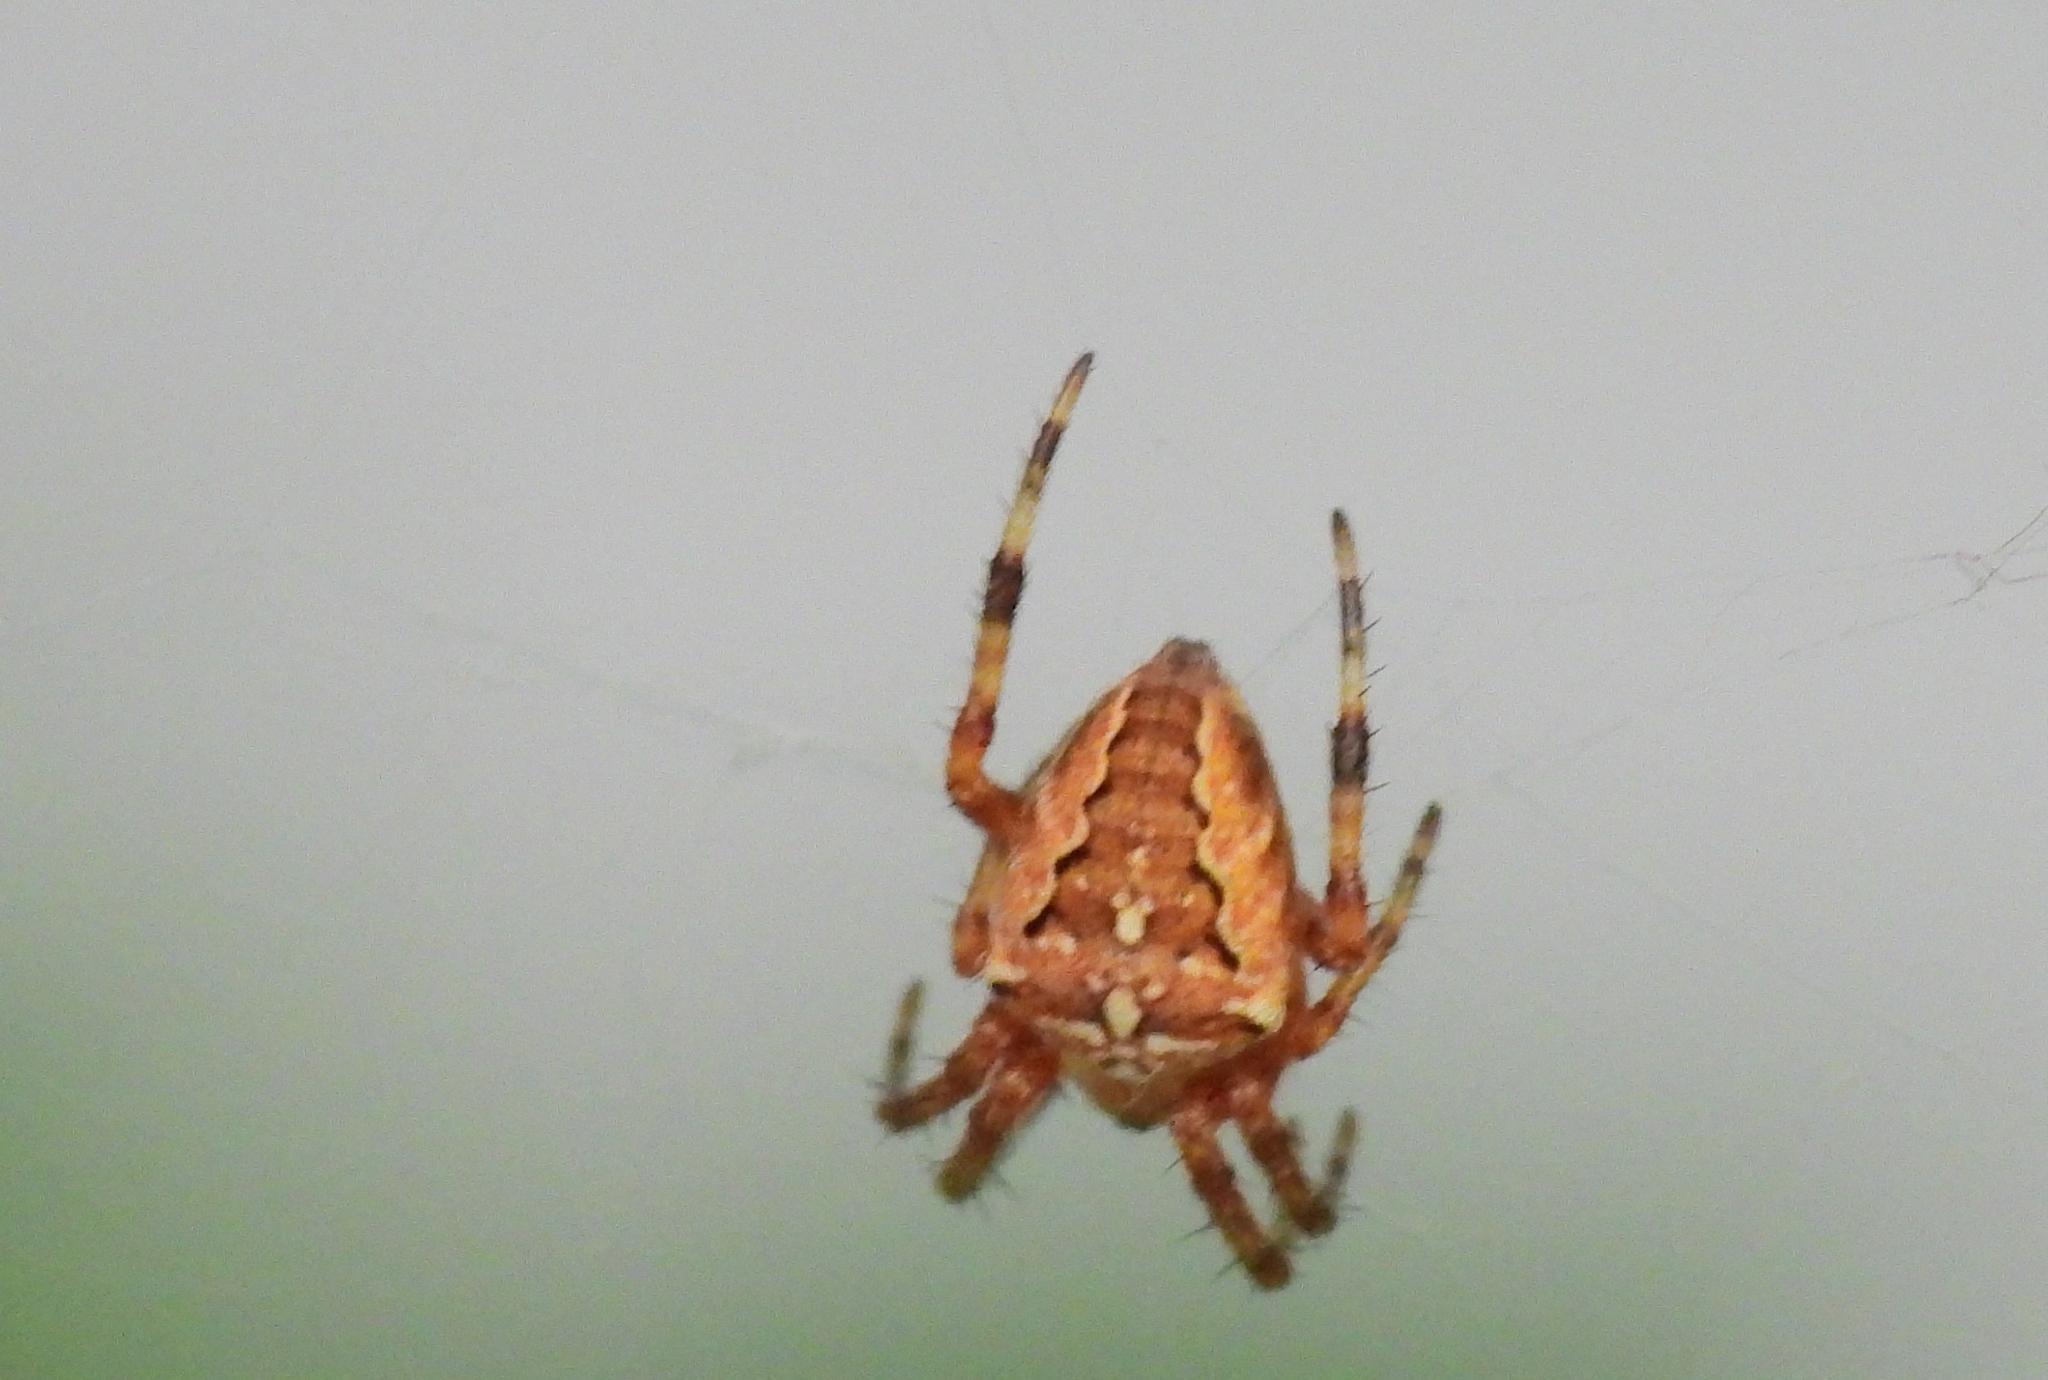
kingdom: Animalia
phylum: Arthropoda
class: Arachnida
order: Araneae
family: Araneidae
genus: Araneus
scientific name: Araneus diadematus
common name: Cross orbweaver
